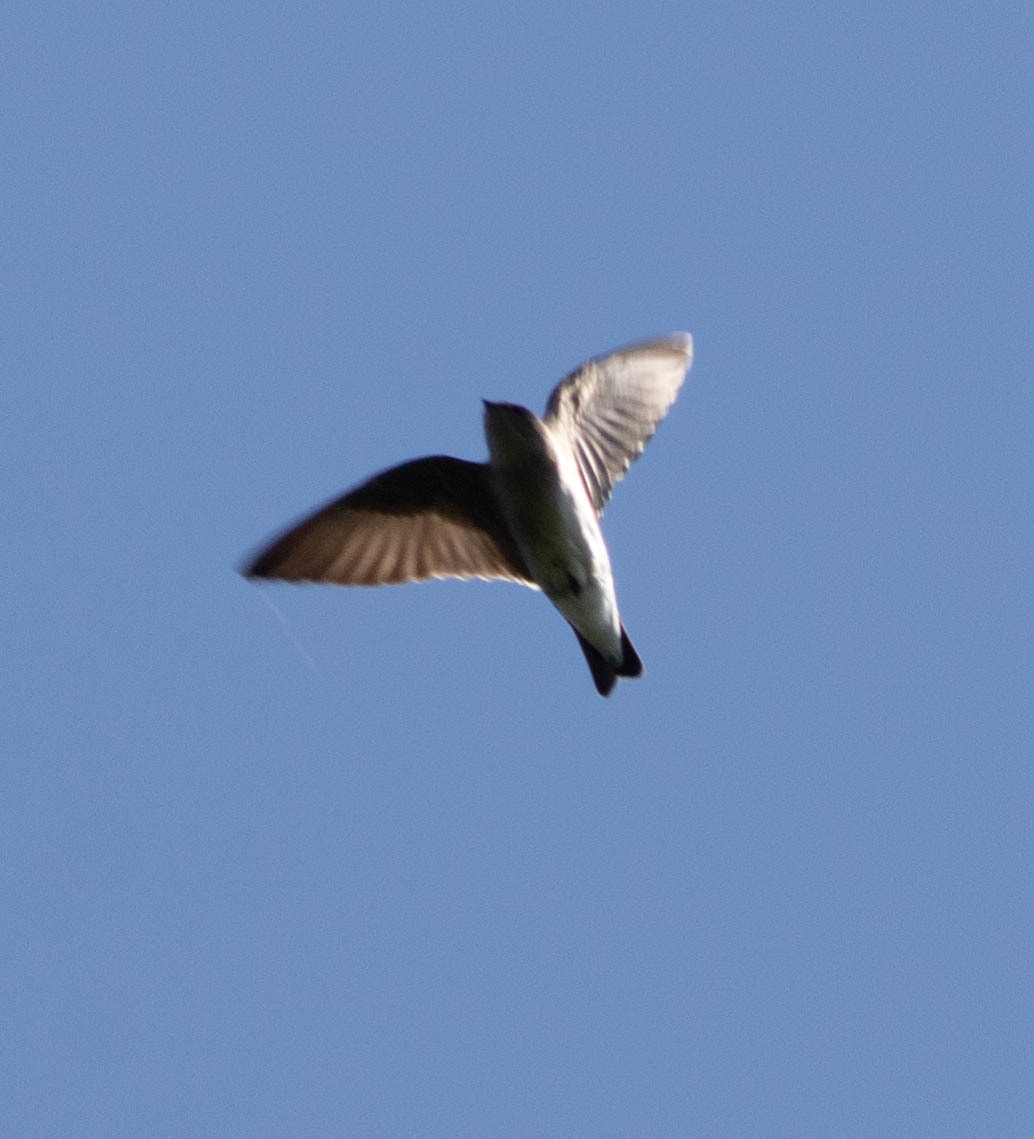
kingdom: Animalia
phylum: Chordata
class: Aves
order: Passeriformes
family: Hirundinidae
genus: Stelgidopteryx
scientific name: Stelgidopteryx serripennis
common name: Northern rough-winged swallow
